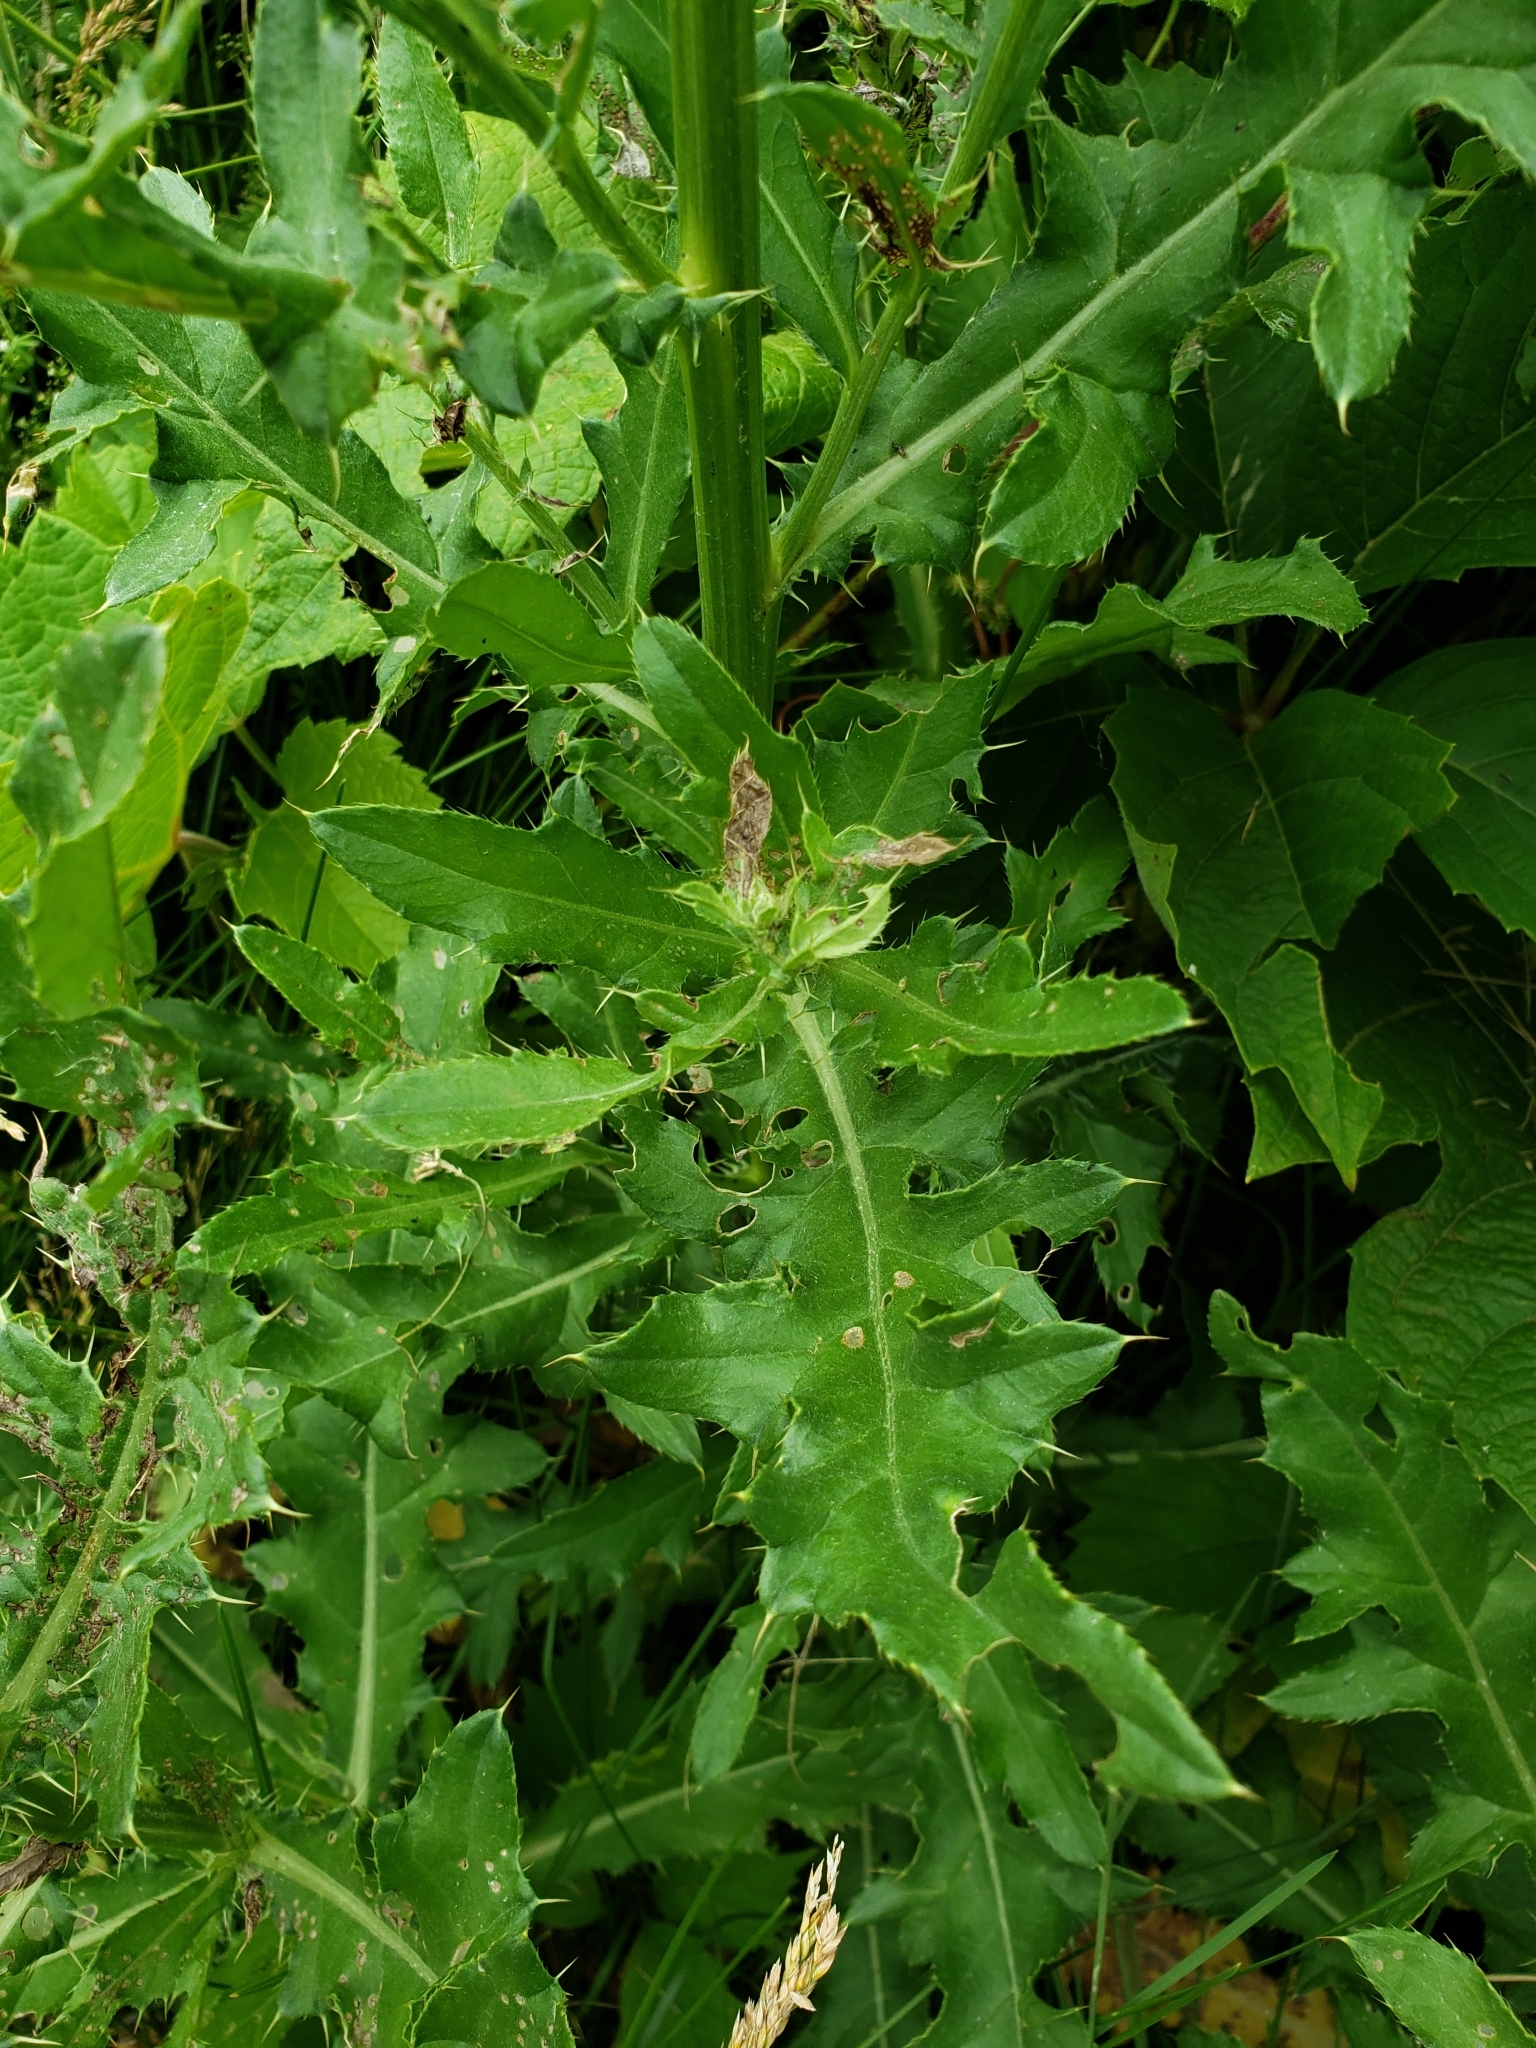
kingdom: Plantae
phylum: Tracheophyta
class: Magnoliopsida
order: Asterales
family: Asteraceae
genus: Cirsium
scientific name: Cirsium arvense
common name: Creeping thistle
